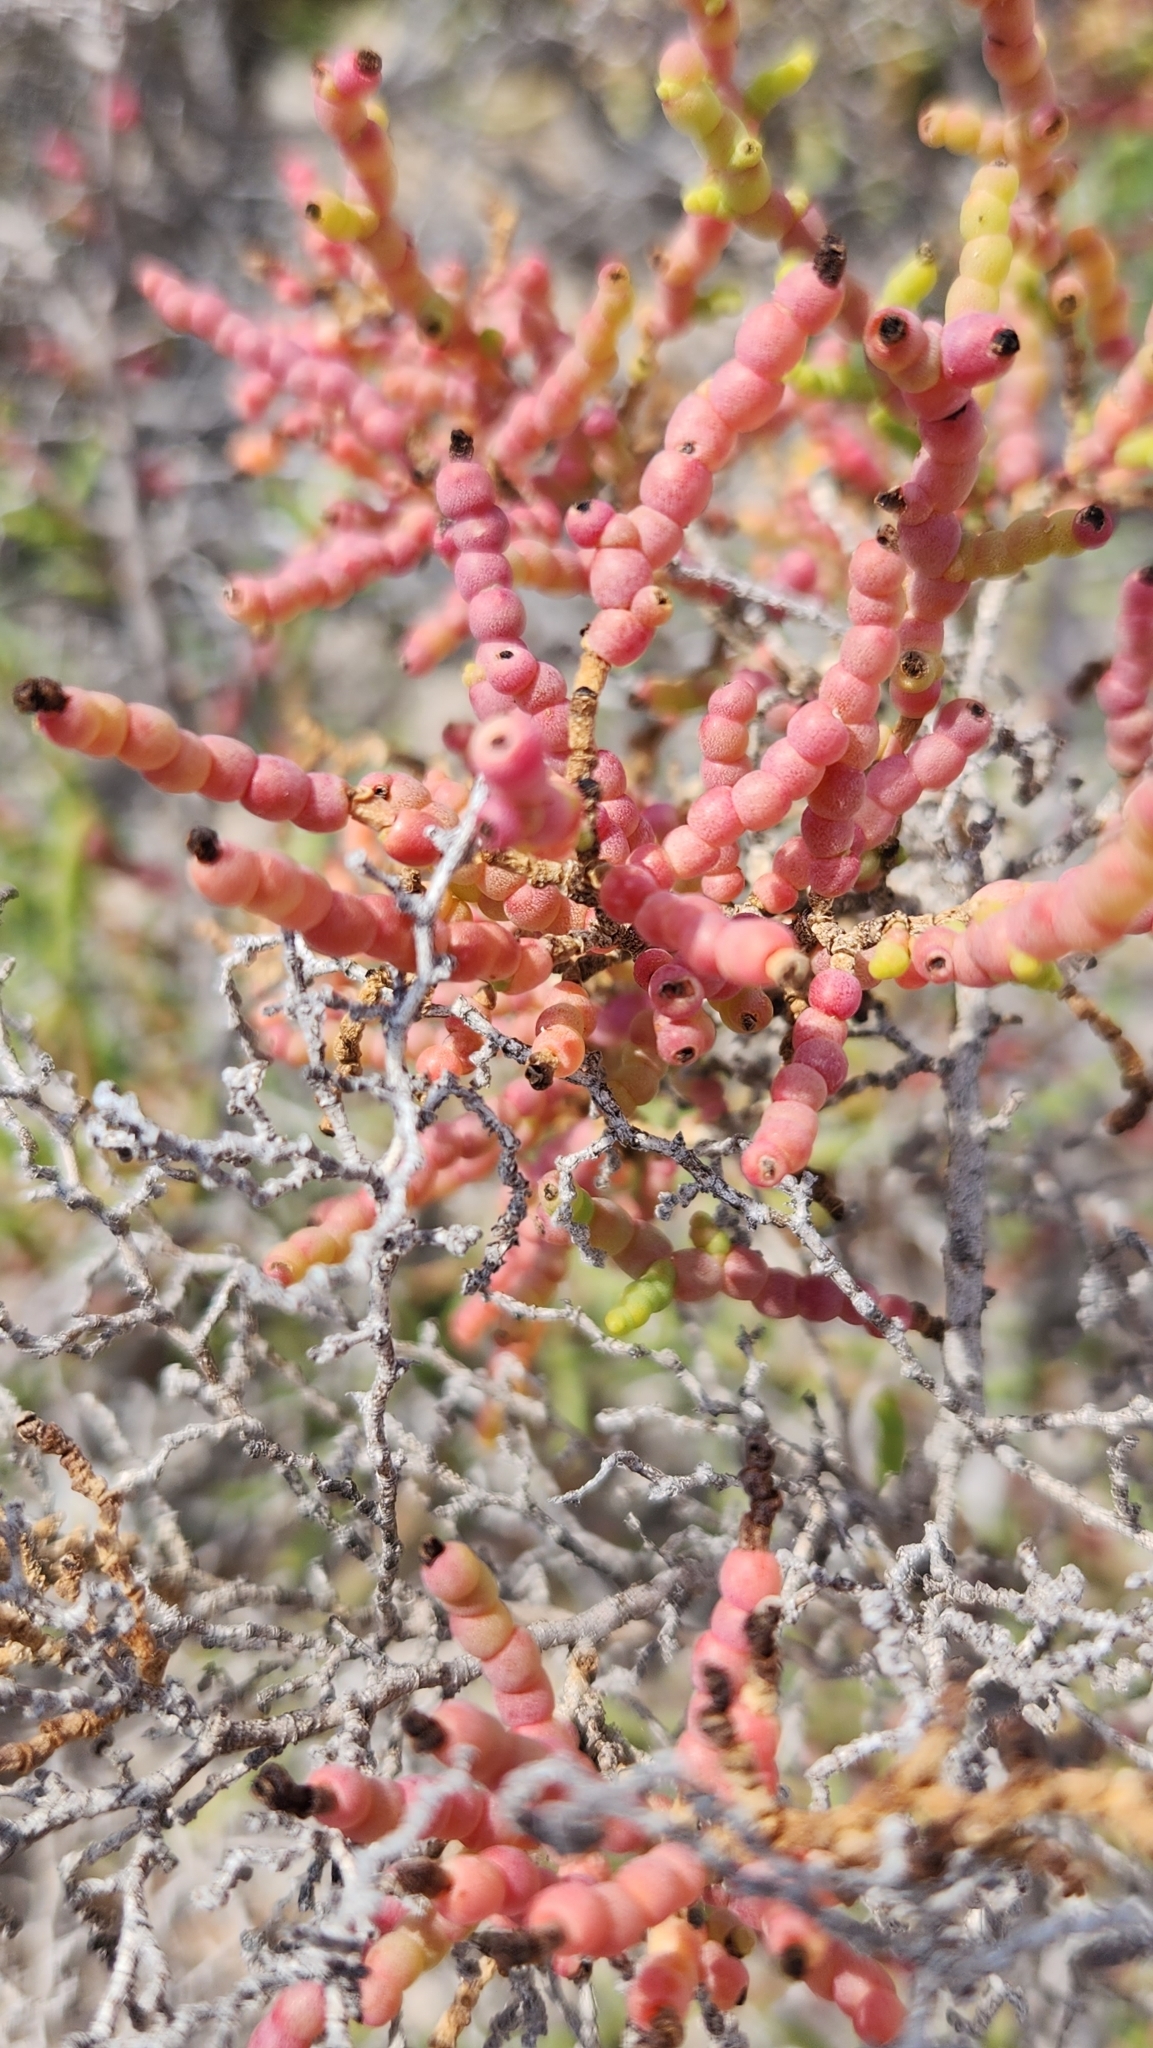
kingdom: Plantae
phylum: Tracheophyta
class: Magnoliopsida
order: Caryophyllales
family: Amaranthaceae
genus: Allenrolfea
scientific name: Allenrolfea occidentalis
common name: Iodine-bush
